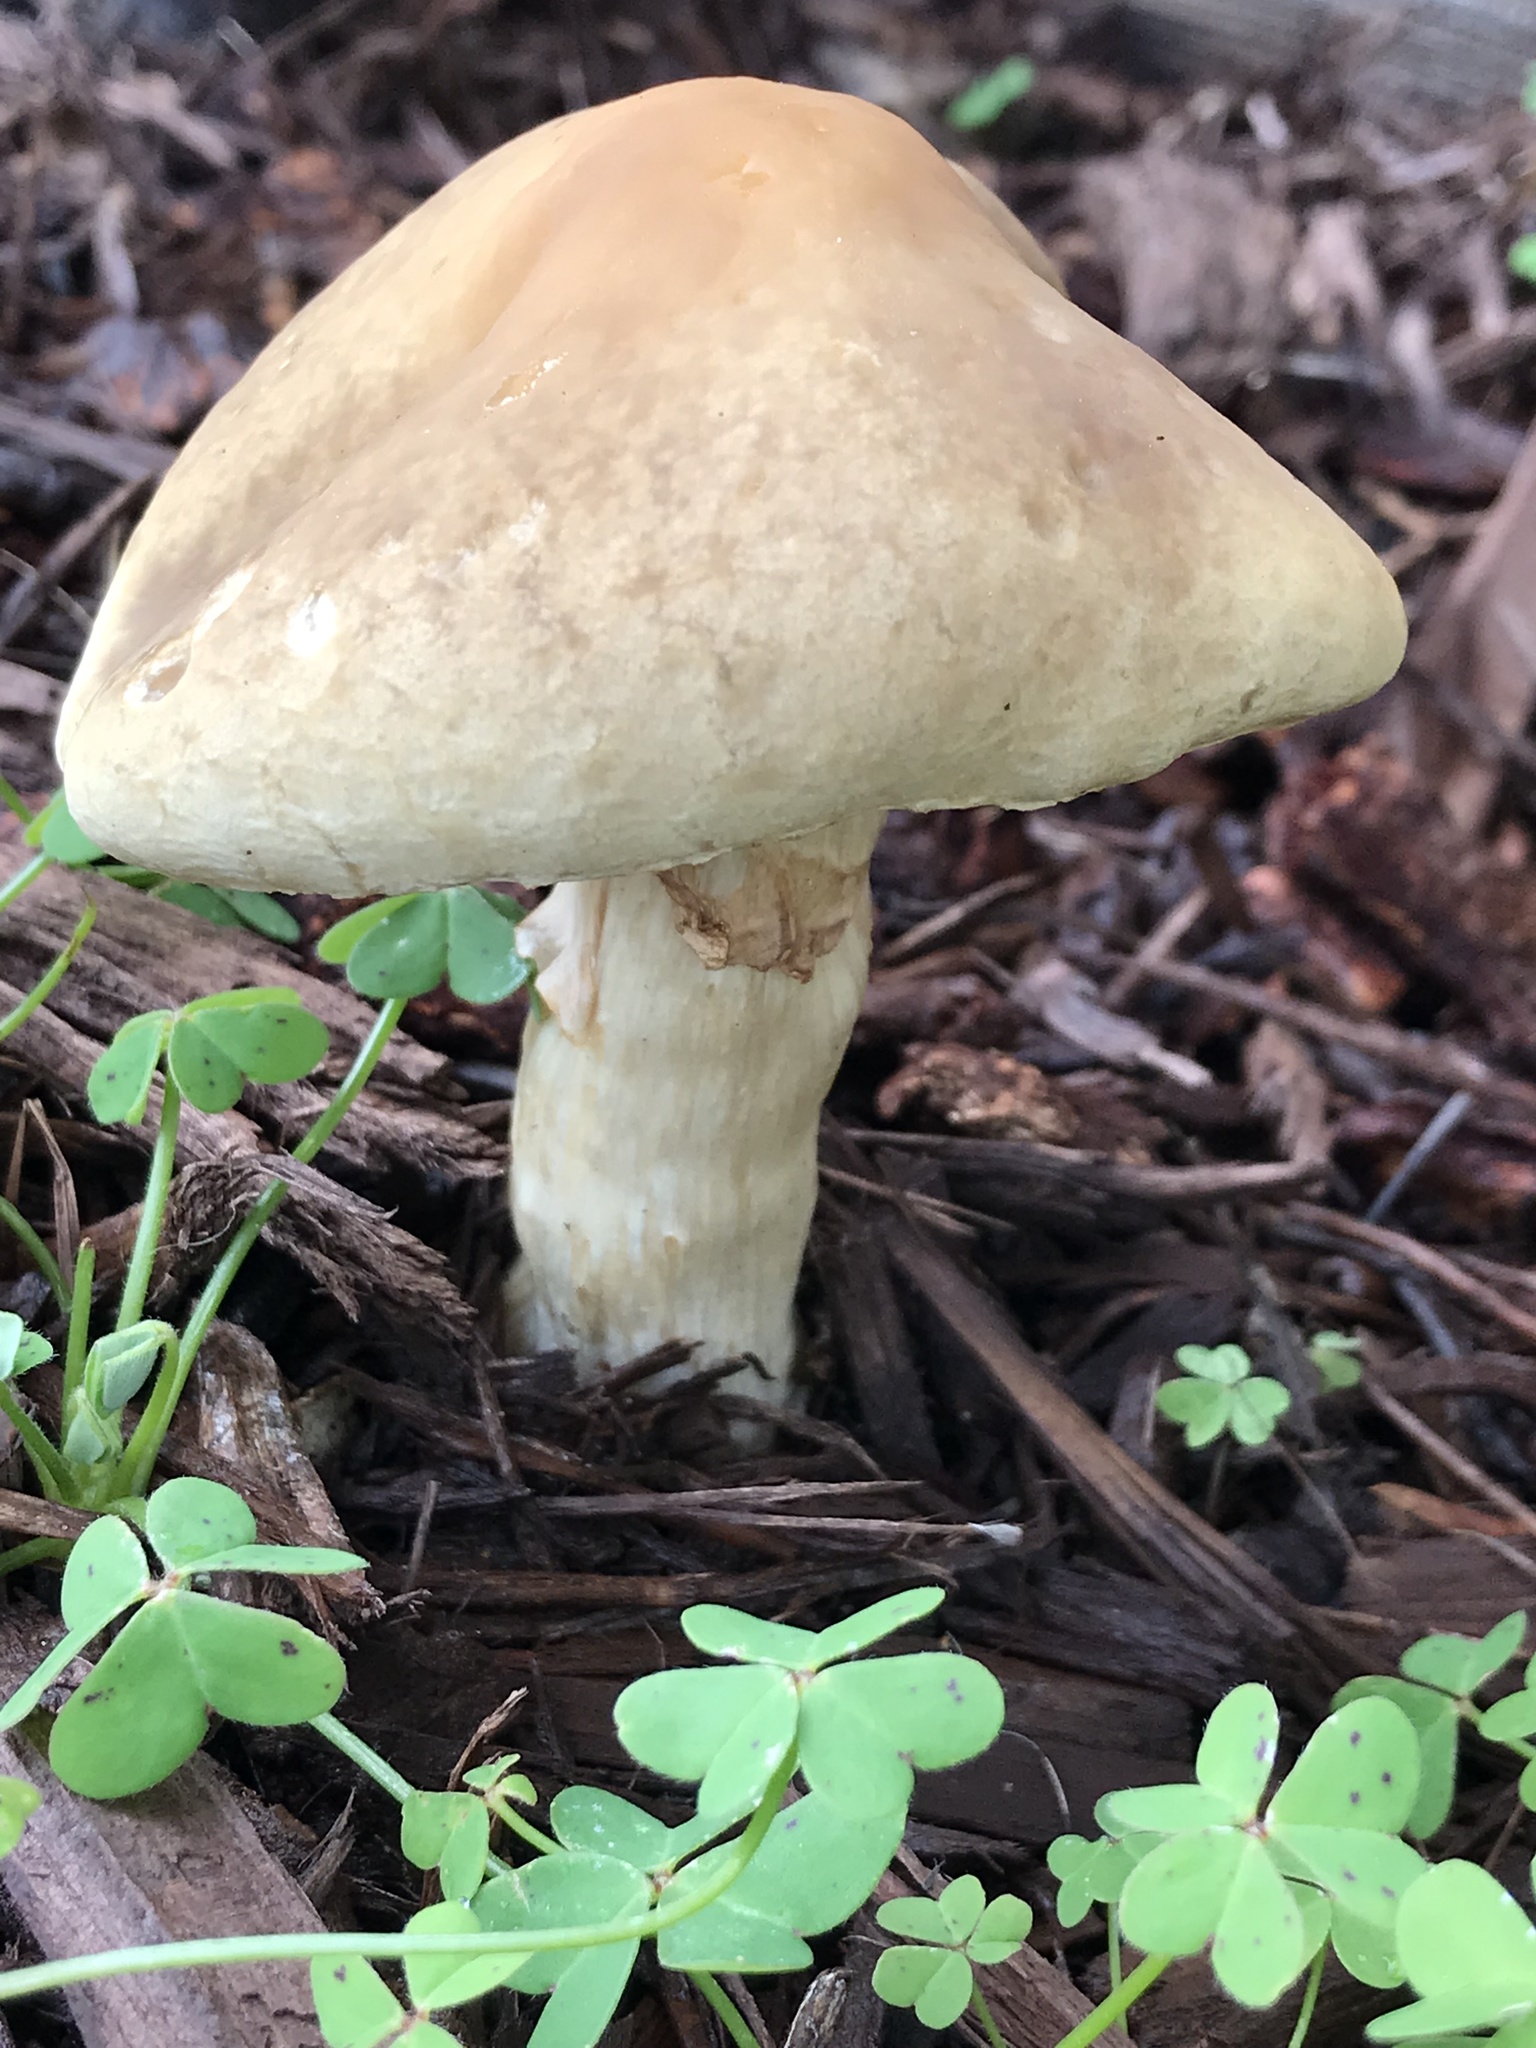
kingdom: Fungi
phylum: Basidiomycota
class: Agaricomycetes
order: Agaricales
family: Strophariaceae
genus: Agrocybe
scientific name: Agrocybe praecox
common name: Spring fieldcap
